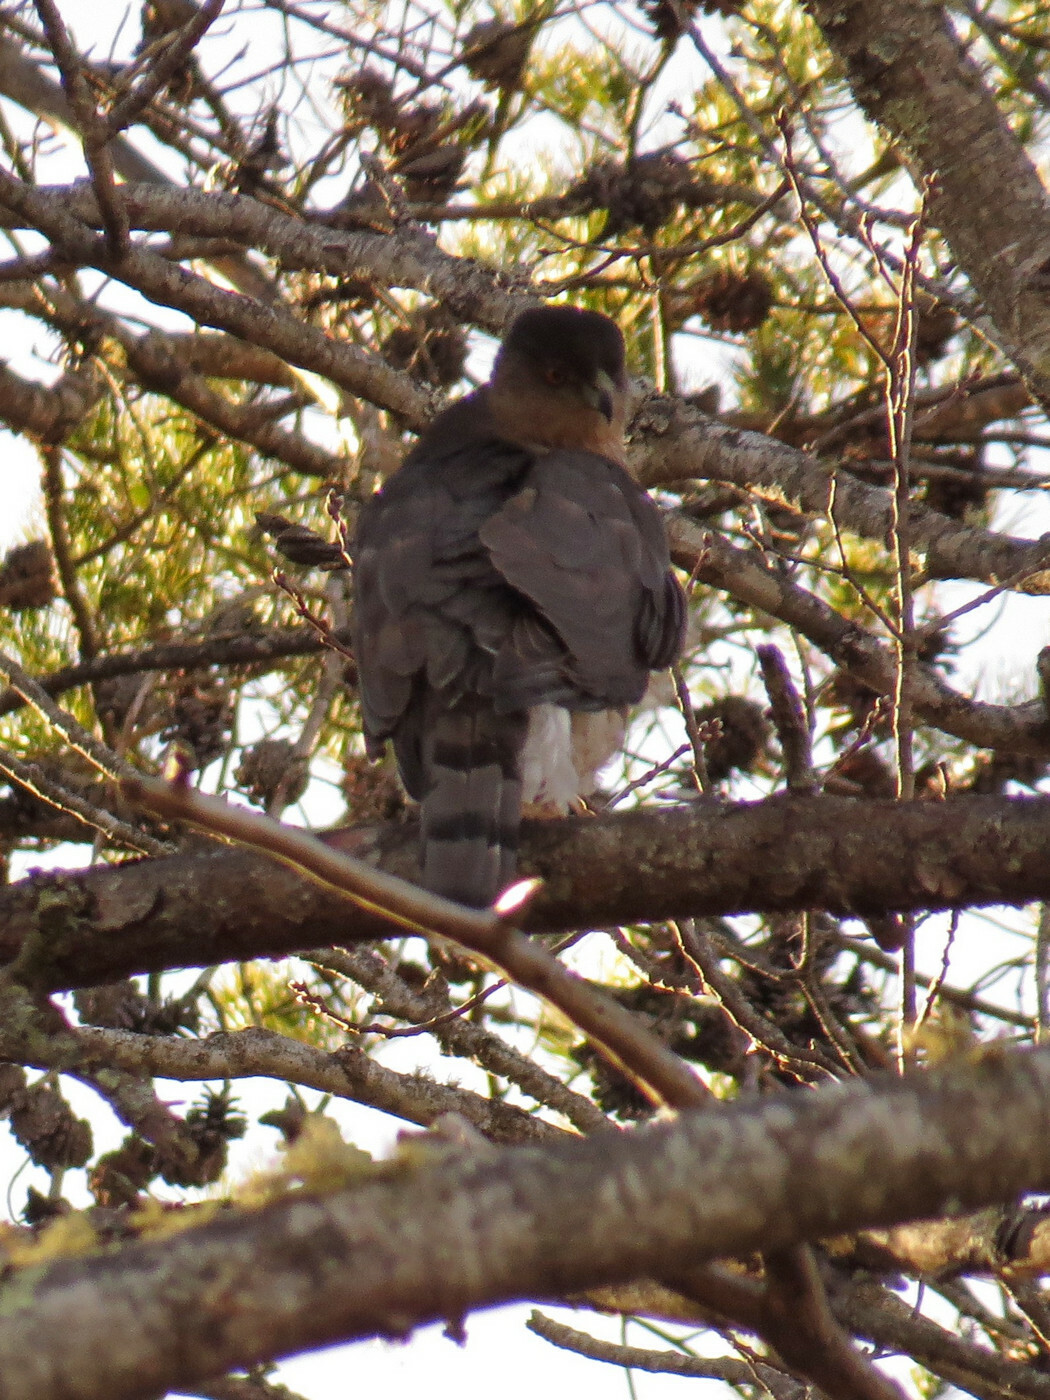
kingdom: Animalia
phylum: Chordata
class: Aves
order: Accipitriformes
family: Accipitridae
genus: Accipiter
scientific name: Accipiter cooperii
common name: Cooper's hawk
